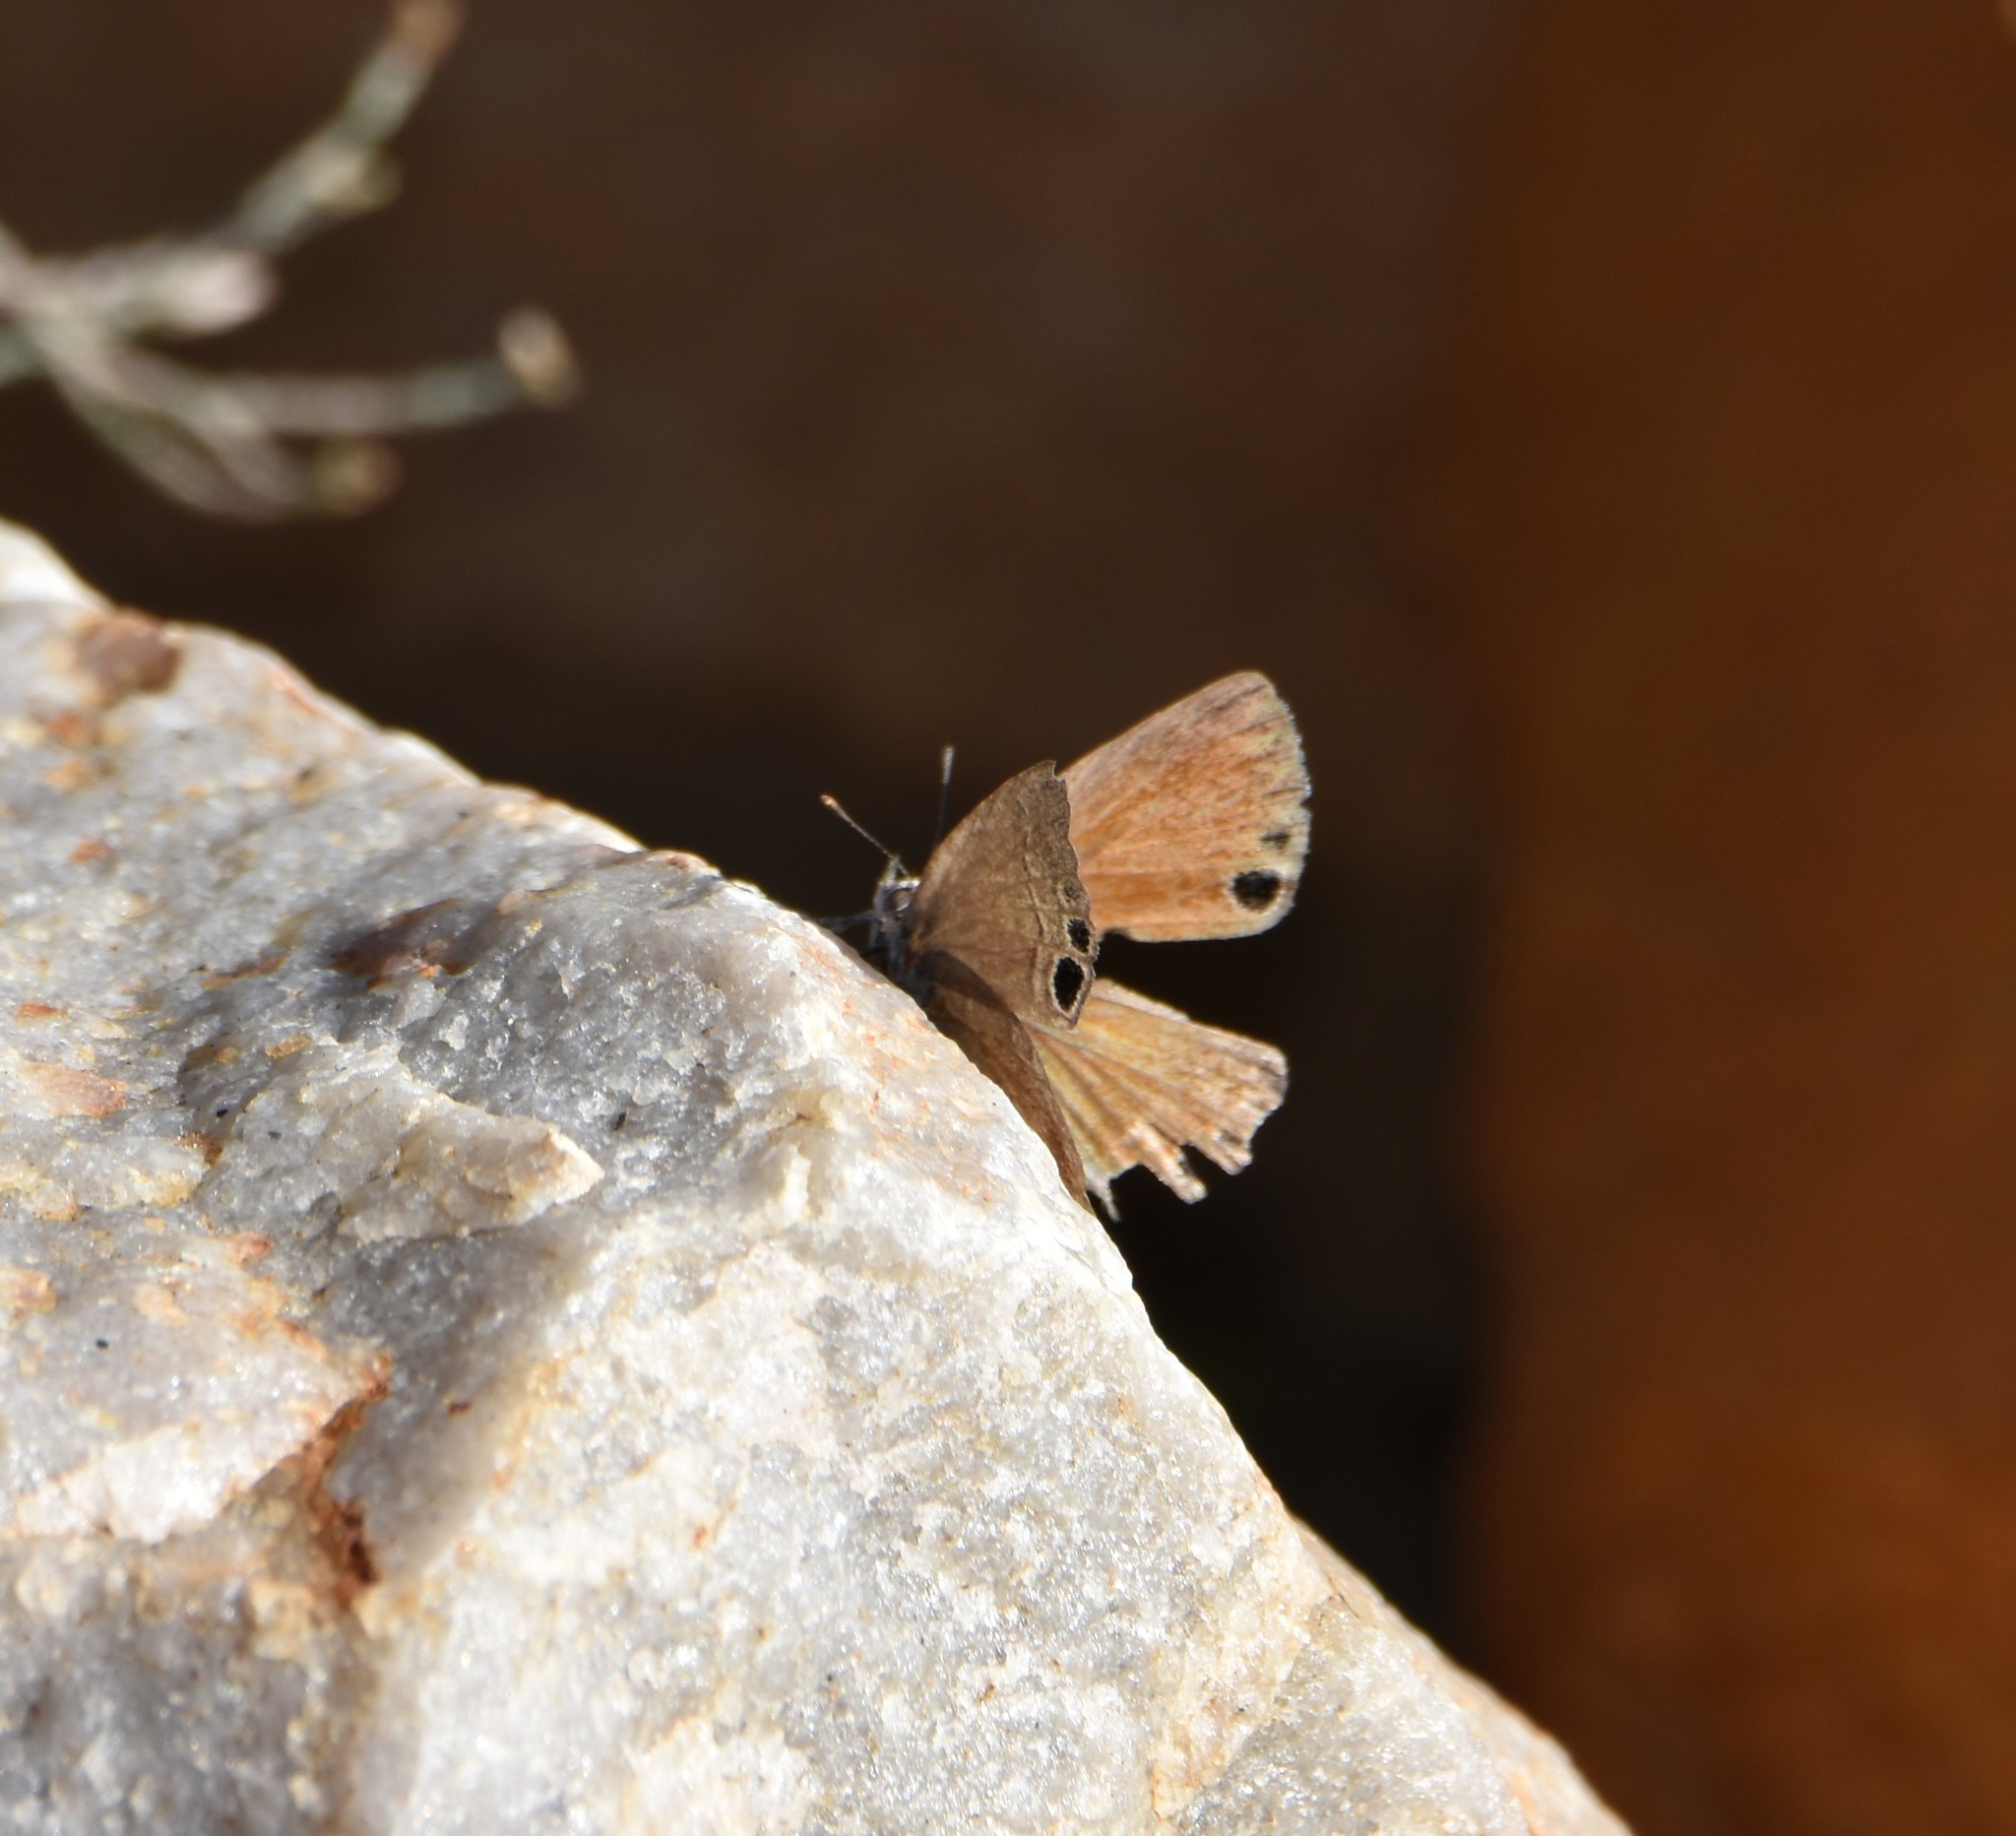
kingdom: Animalia
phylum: Arthropoda
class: Insecta
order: Lepidoptera
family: Lycaenidae
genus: Leptomyrina
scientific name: Leptomyrina lara
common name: Cape black-eye
